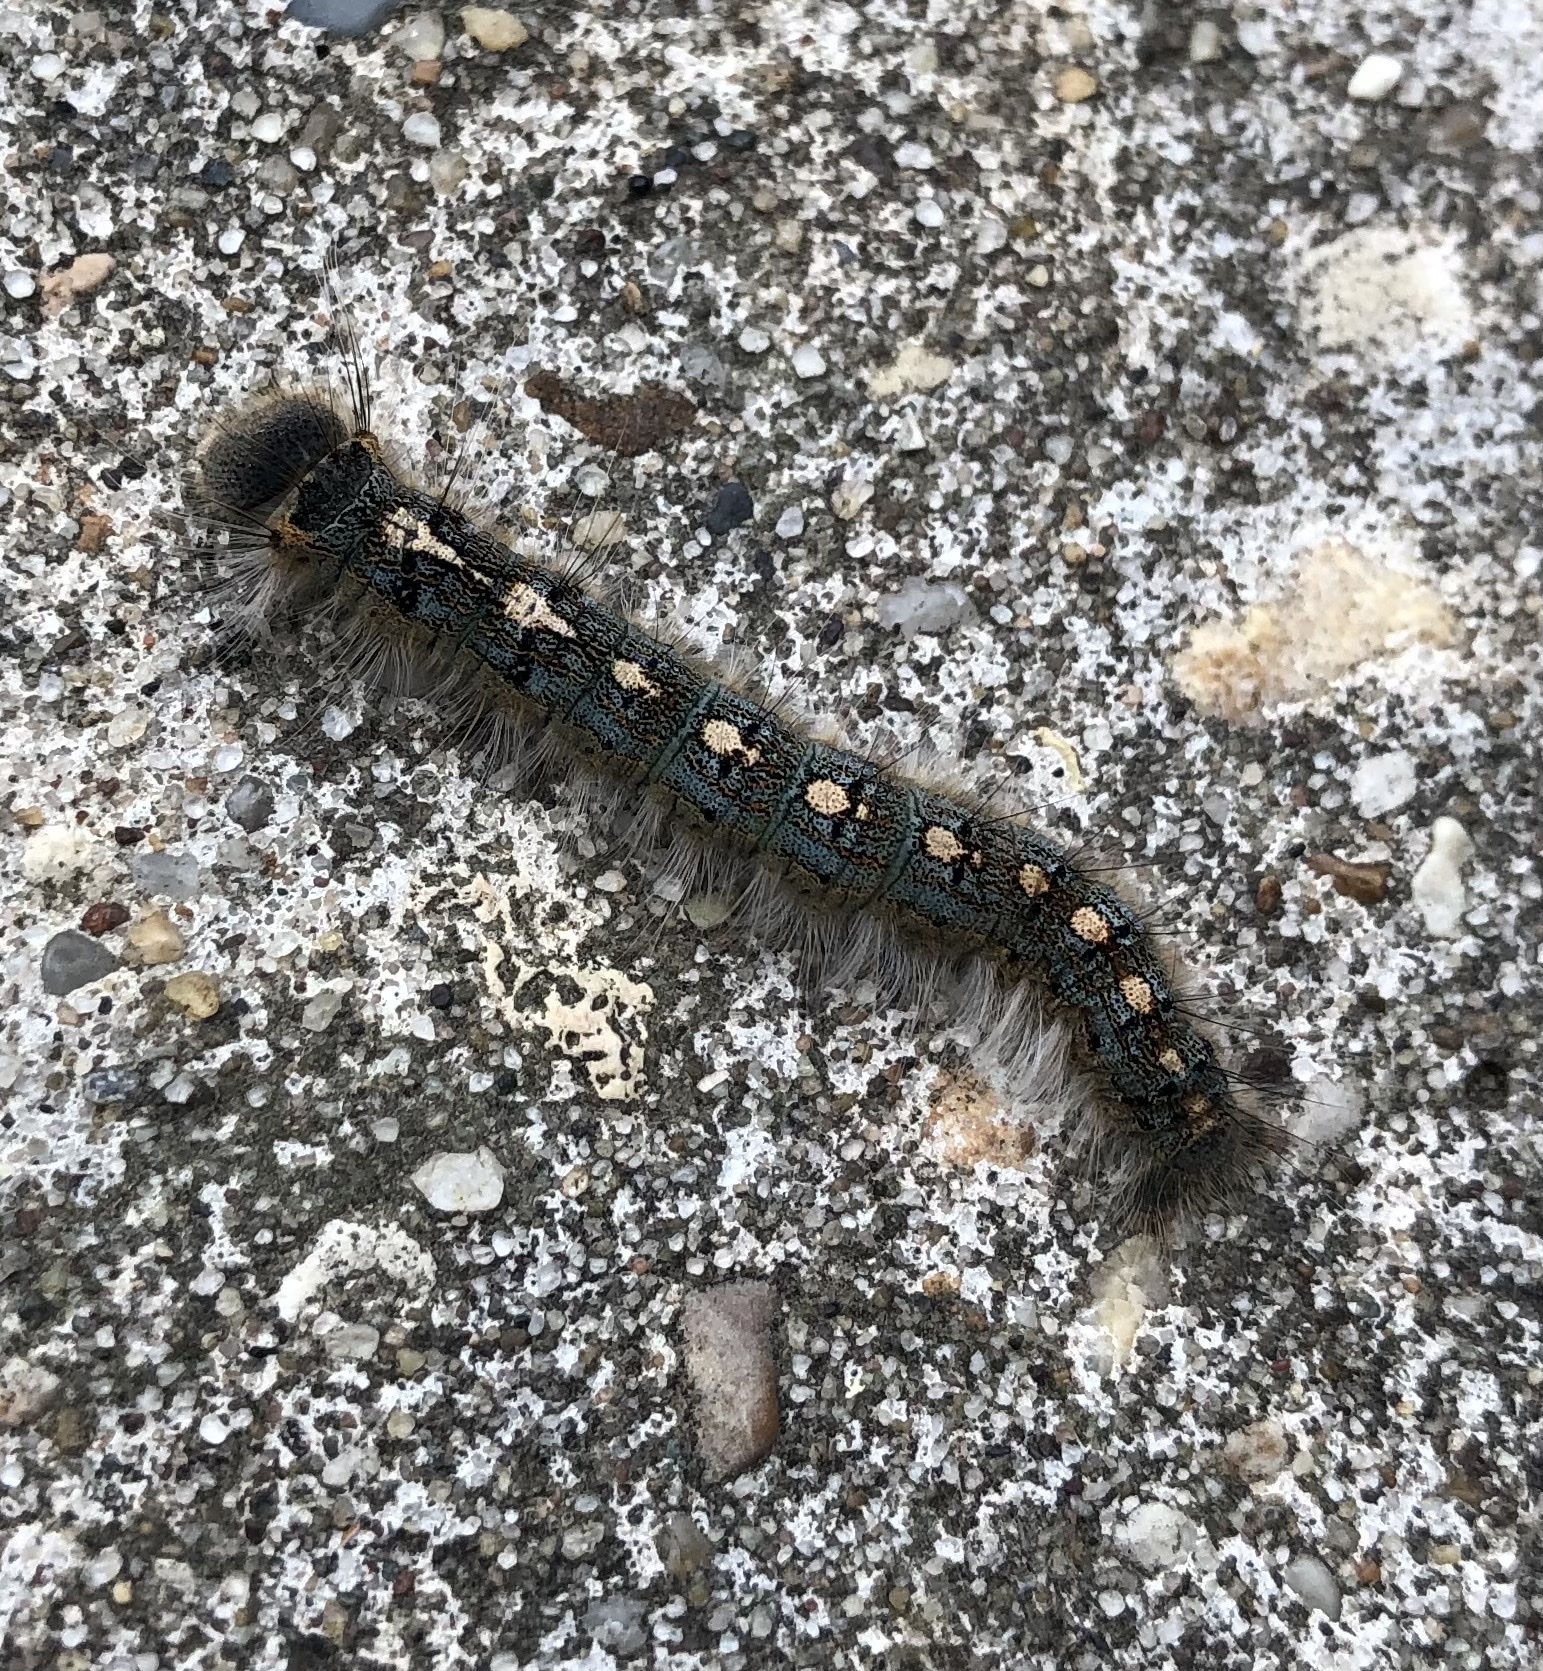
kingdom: Animalia
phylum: Arthropoda
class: Insecta
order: Lepidoptera
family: Lasiocampidae
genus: Malacosoma
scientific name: Malacosoma disstria
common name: Forest tent caterpillar
